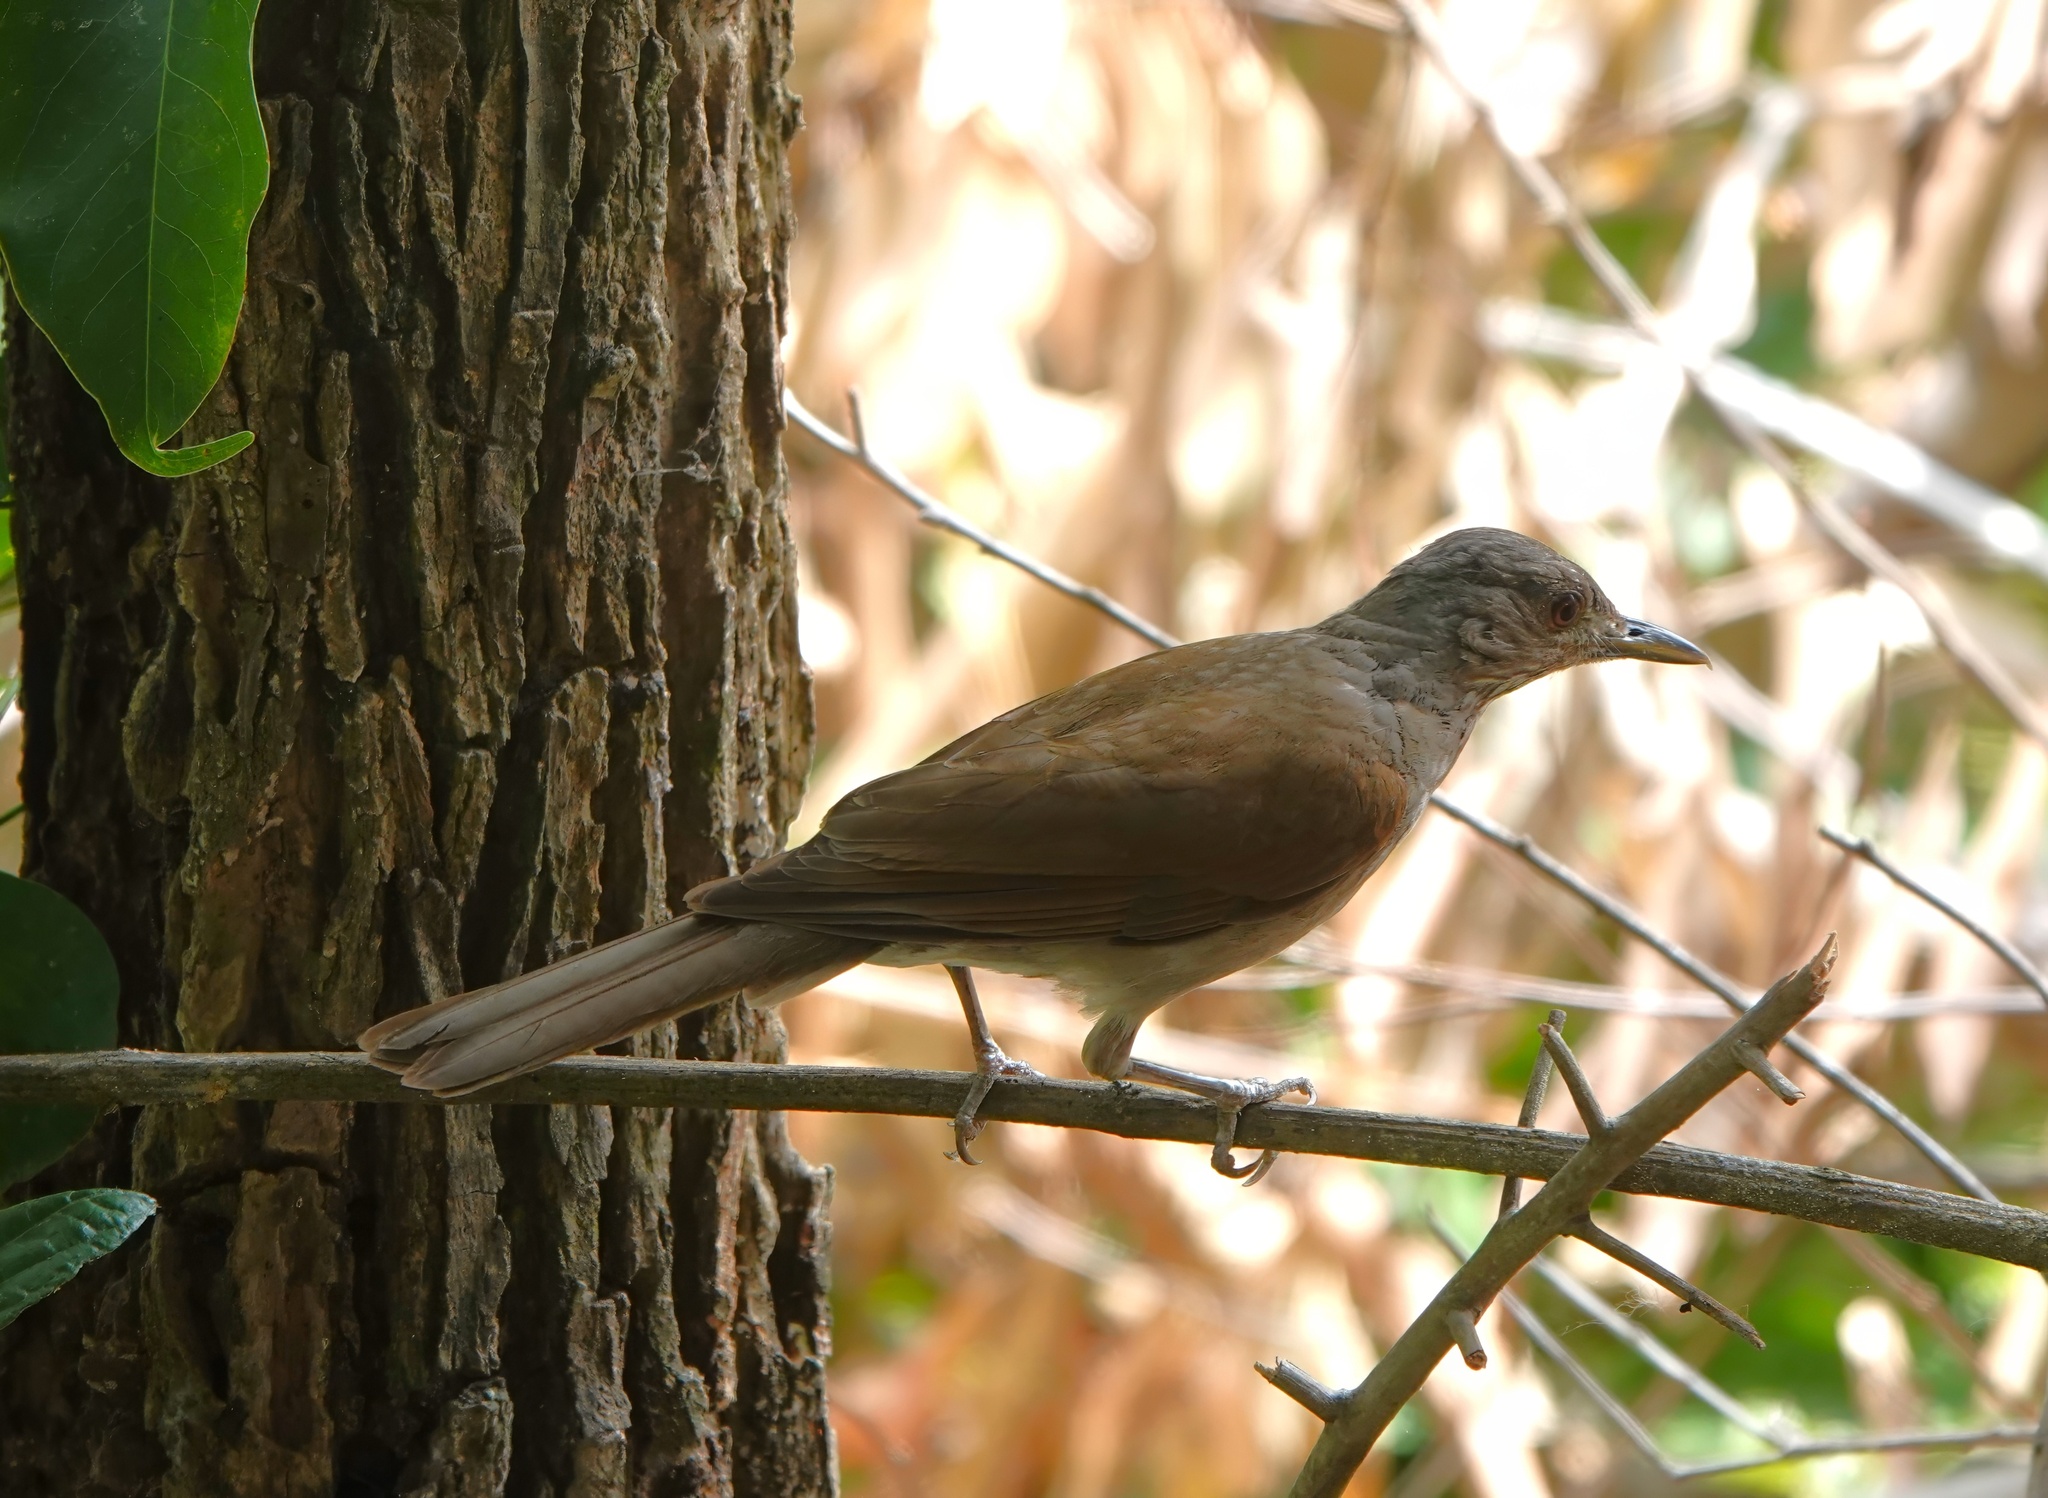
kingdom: Animalia
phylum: Chordata
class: Aves
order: Passeriformes
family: Turdidae
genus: Turdus
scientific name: Turdus leucomelas
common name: Pale-breasted thrush
